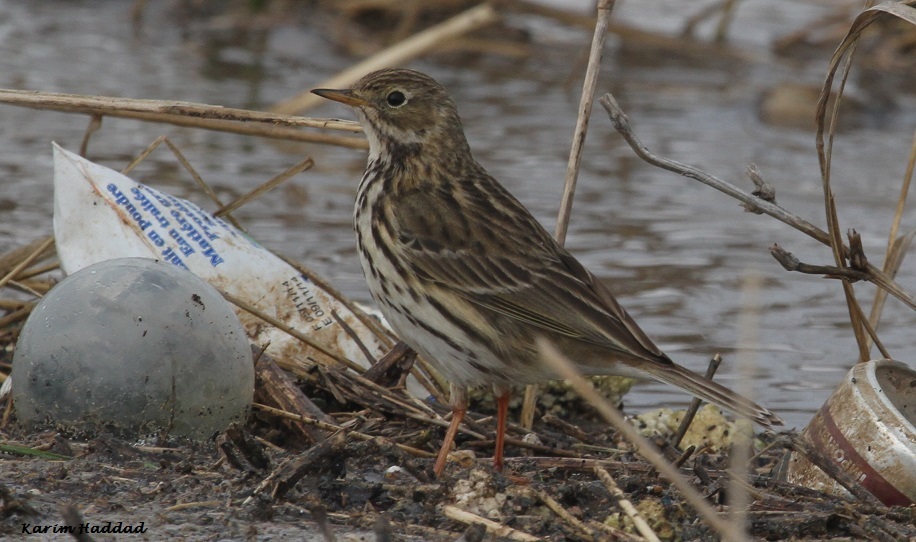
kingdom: Animalia
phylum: Chordata
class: Aves
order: Passeriformes
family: Motacillidae
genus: Anthus
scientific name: Anthus pratensis
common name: Meadow pipit
